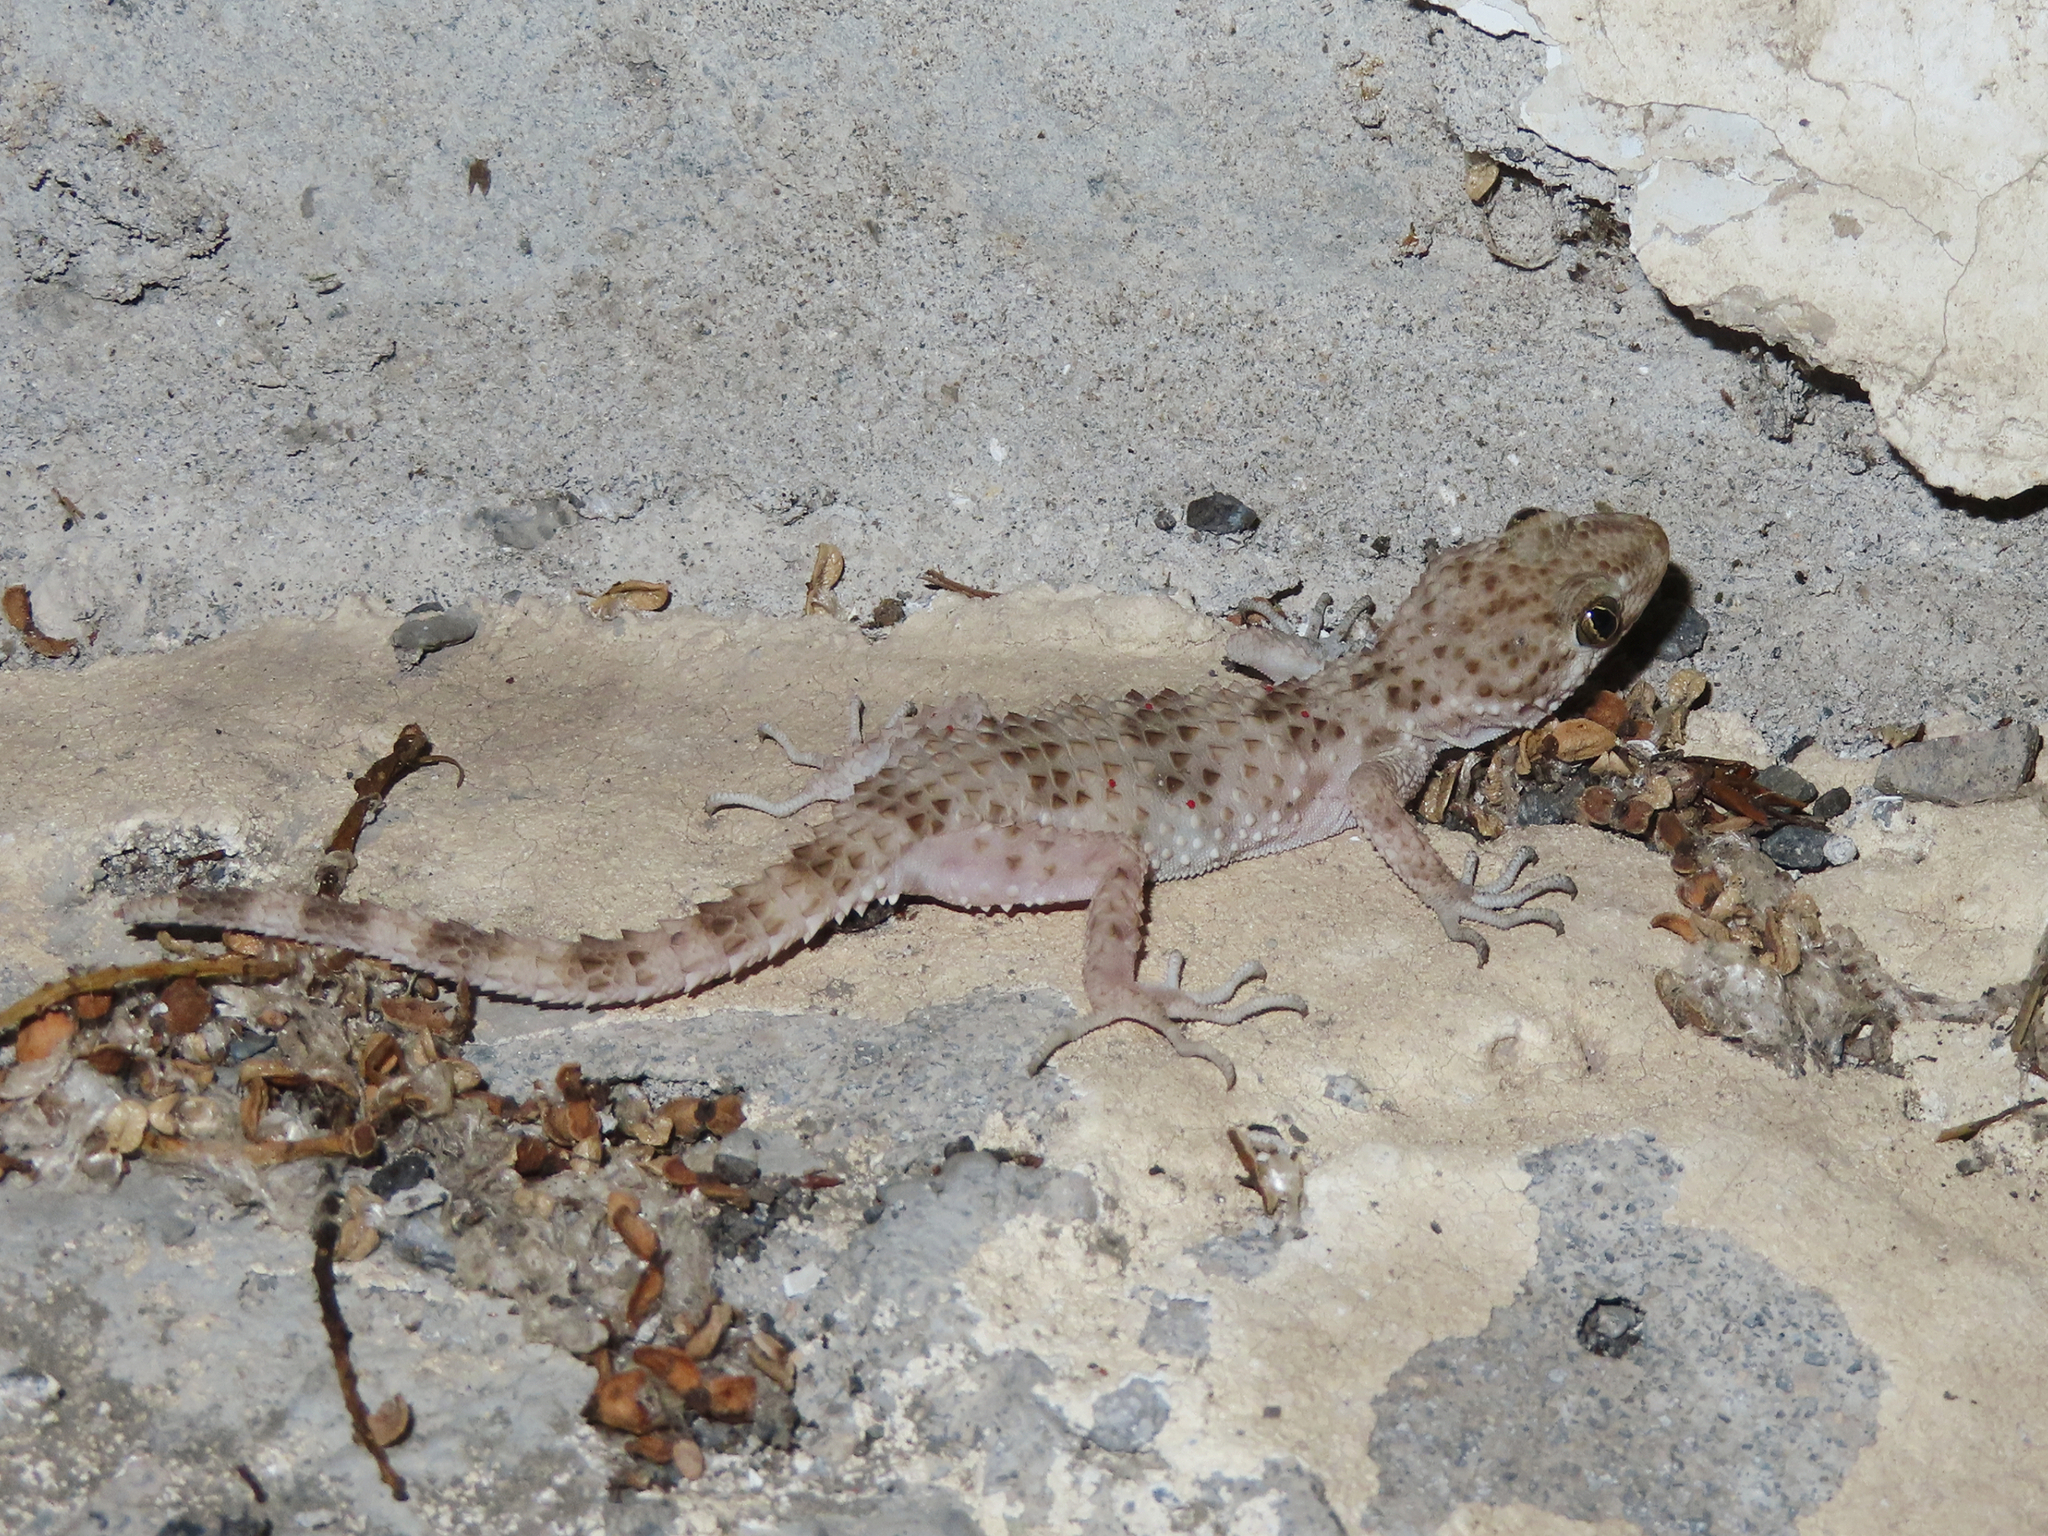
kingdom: Animalia
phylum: Chordata
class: Squamata
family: Gekkonidae
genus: Tenuidactylus
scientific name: Tenuidactylus caspius
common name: Caspian bent-toed gecko
